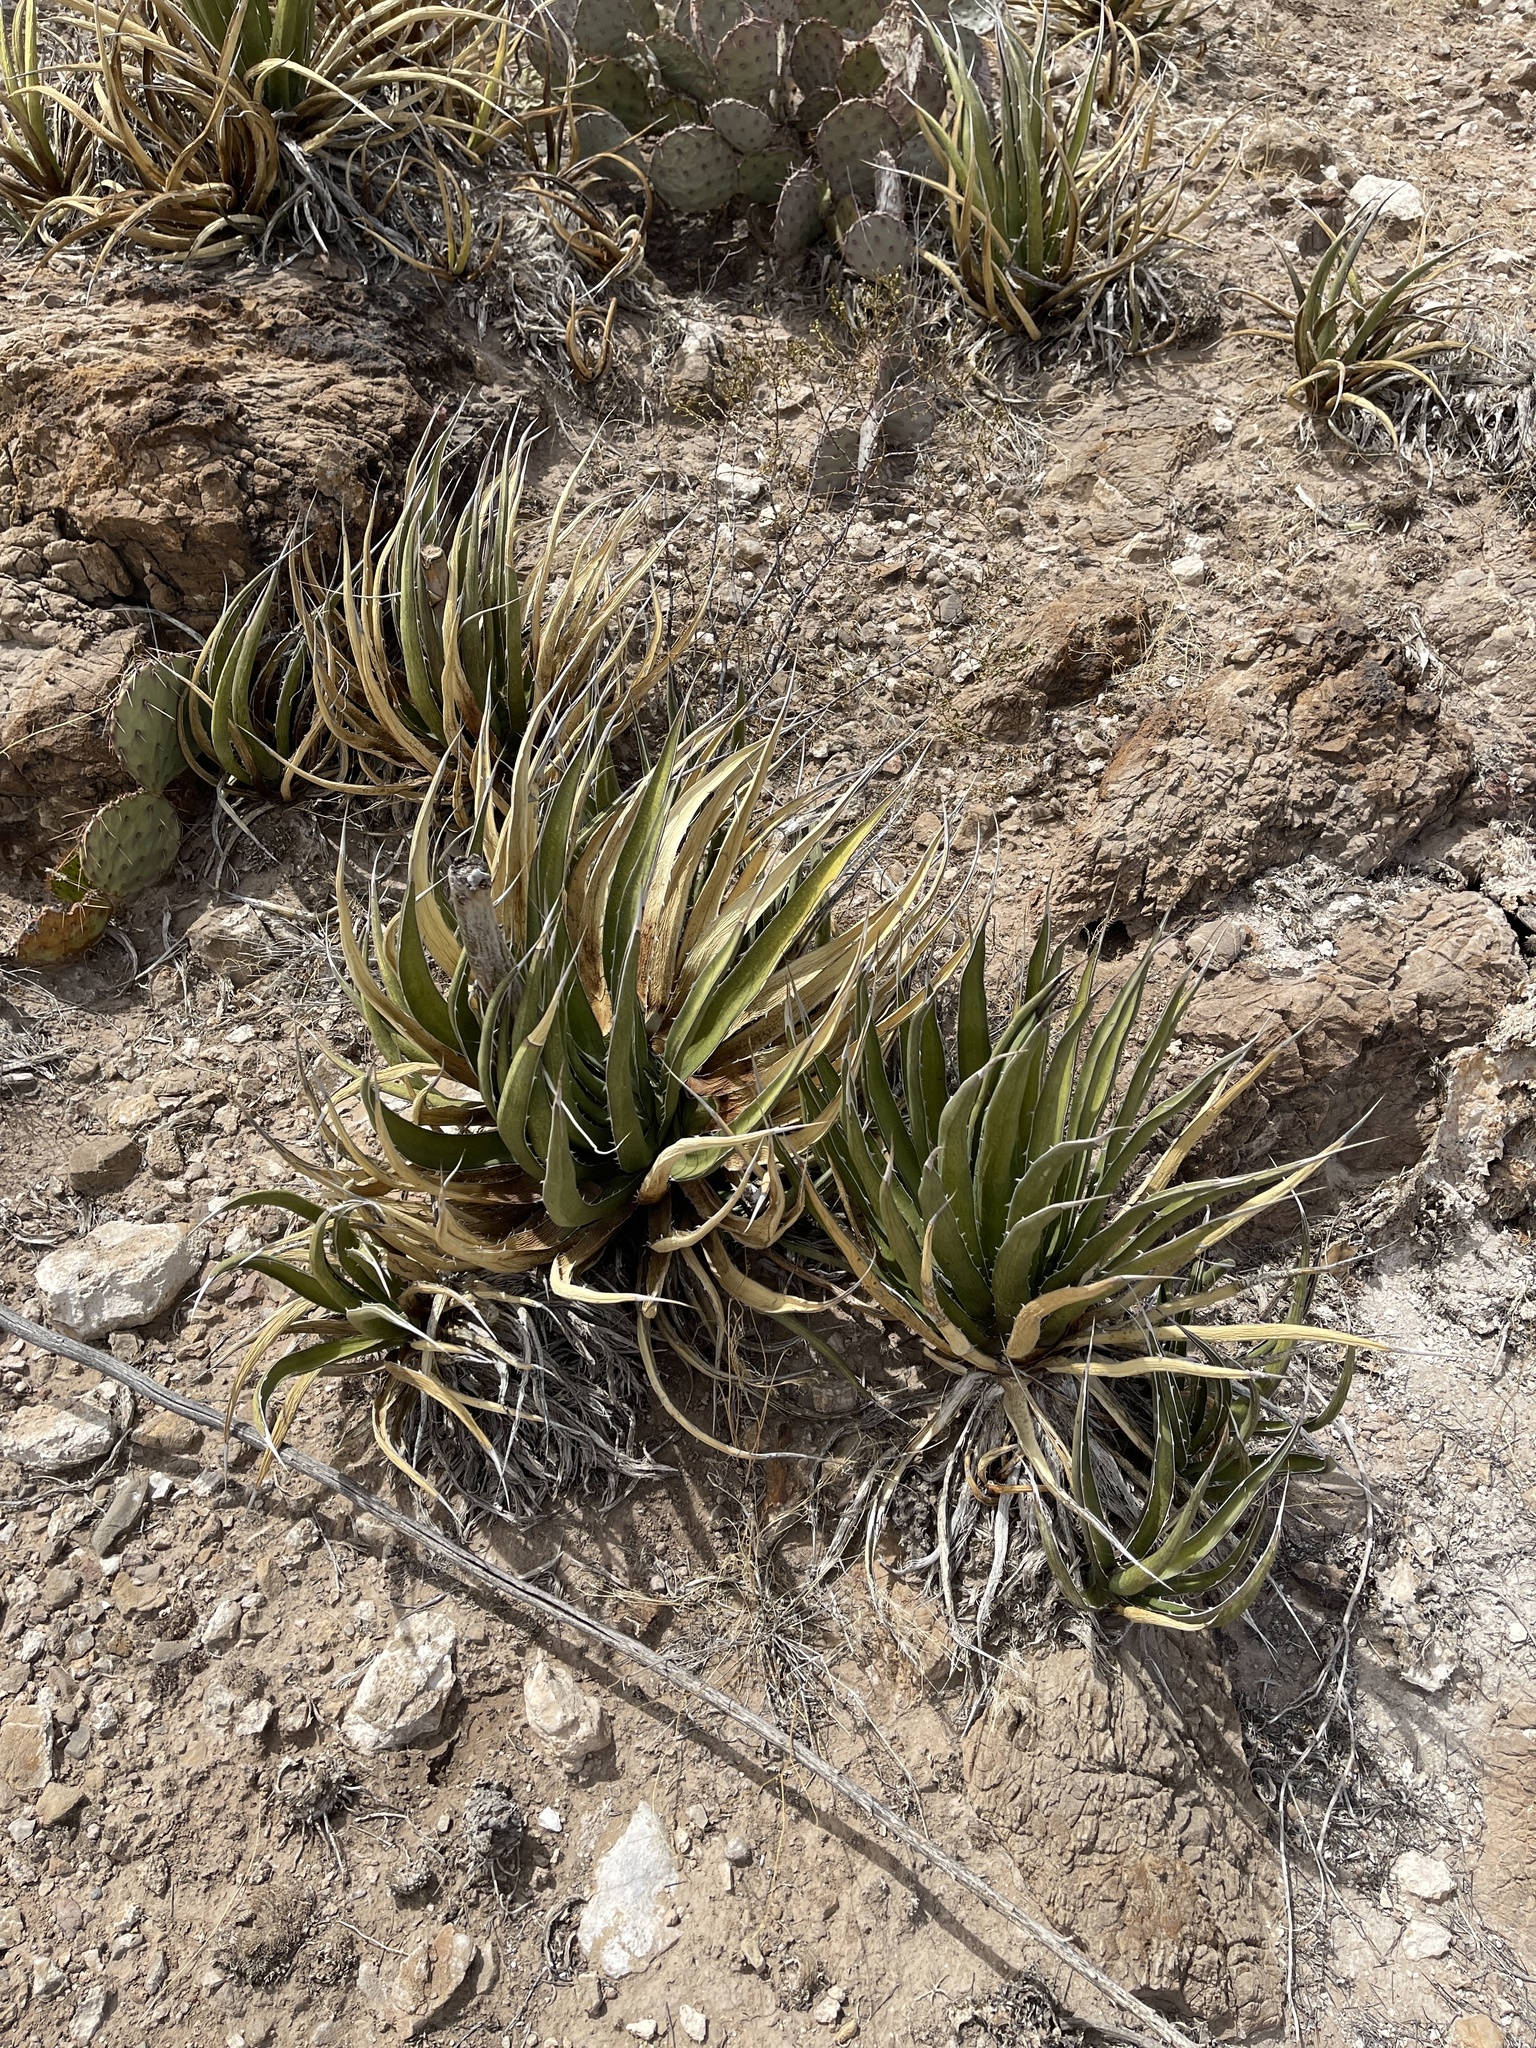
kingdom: Plantae
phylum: Tracheophyta
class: Liliopsida
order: Asparagales
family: Asparagaceae
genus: Agave
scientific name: Agave lechuguilla
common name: Lecheguilla agave
